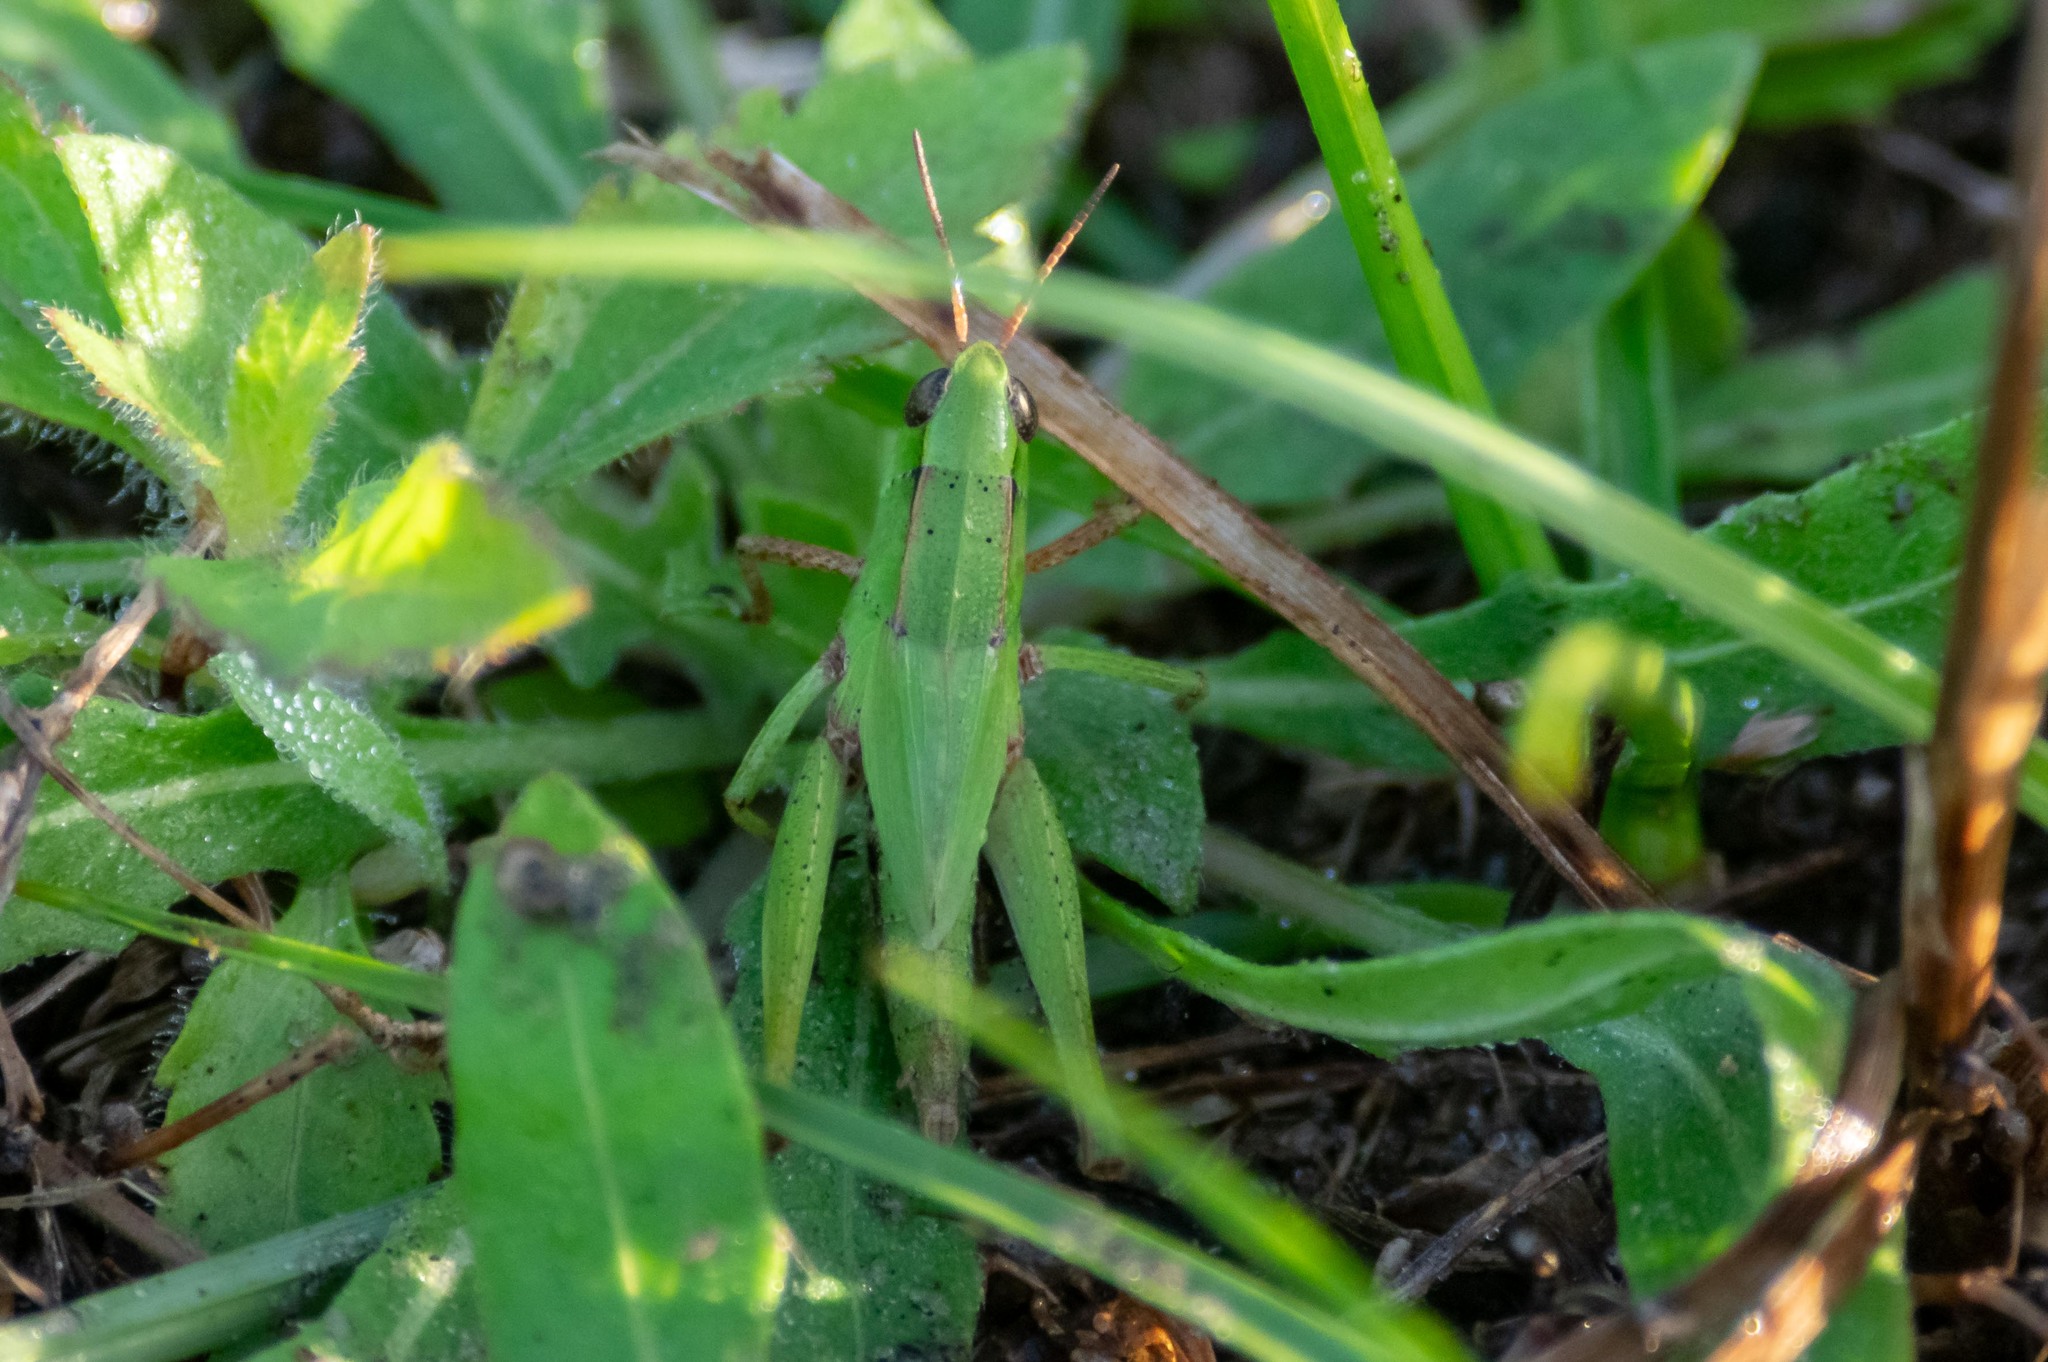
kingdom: Animalia
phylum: Arthropoda
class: Insecta
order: Orthoptera
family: Acrididae
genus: Dichromorpha
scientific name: Dichromorpha viridis
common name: Short-winged green grasshopper
